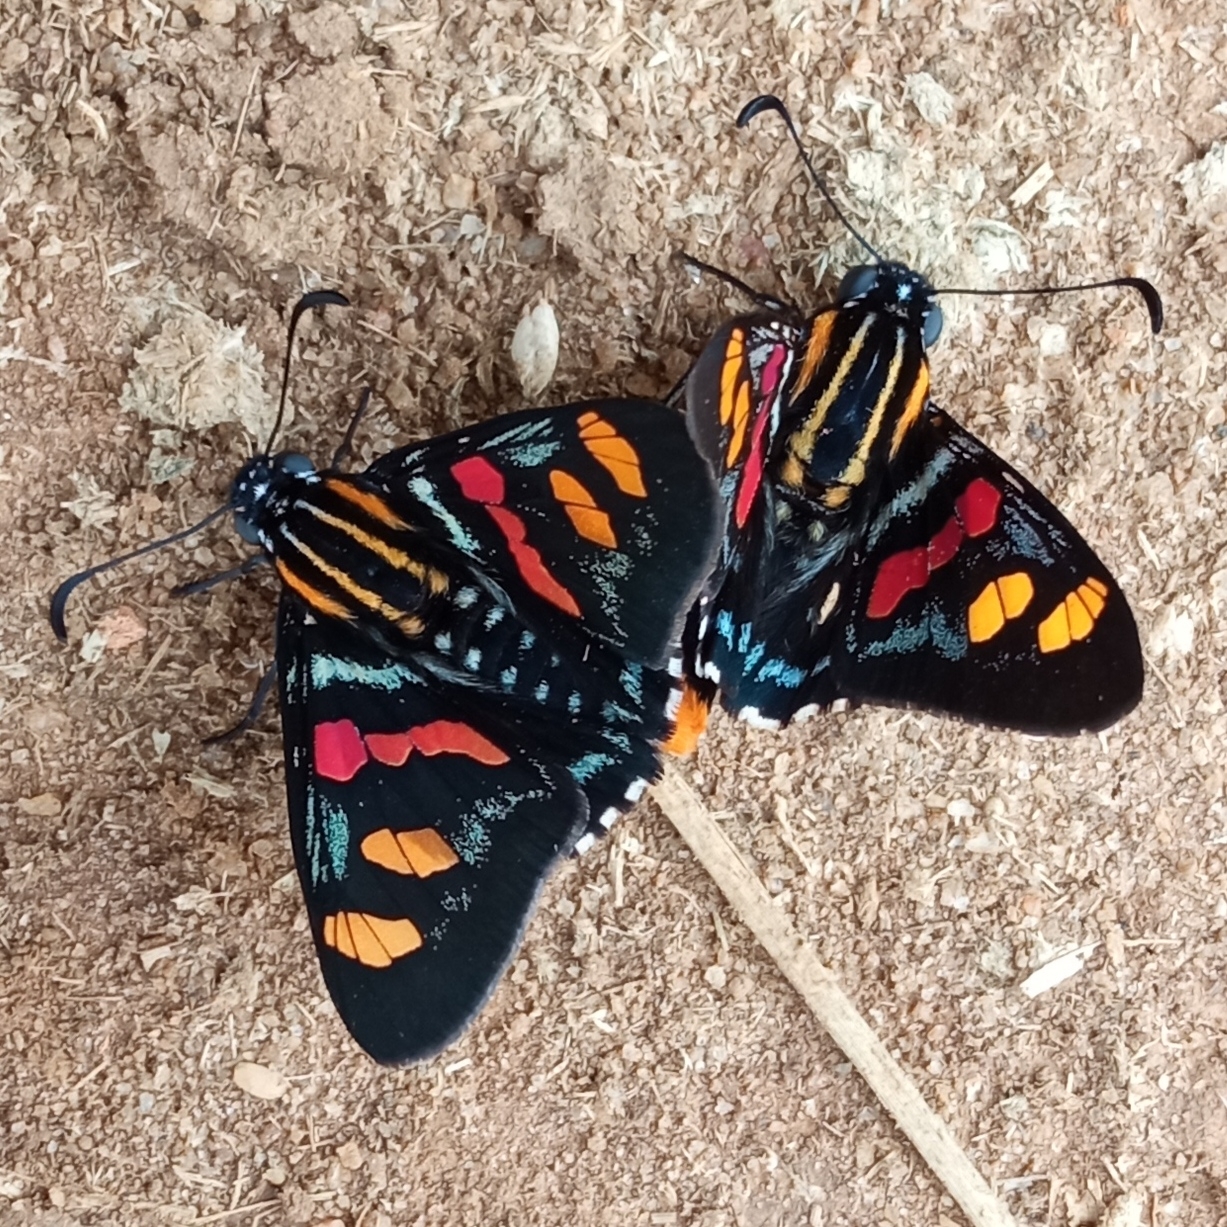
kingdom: Animalia
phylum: Arthropoda
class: Insecta
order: Lepidoptera
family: Hesperiidae
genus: Mimoniades
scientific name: Mimoniades versicolor
